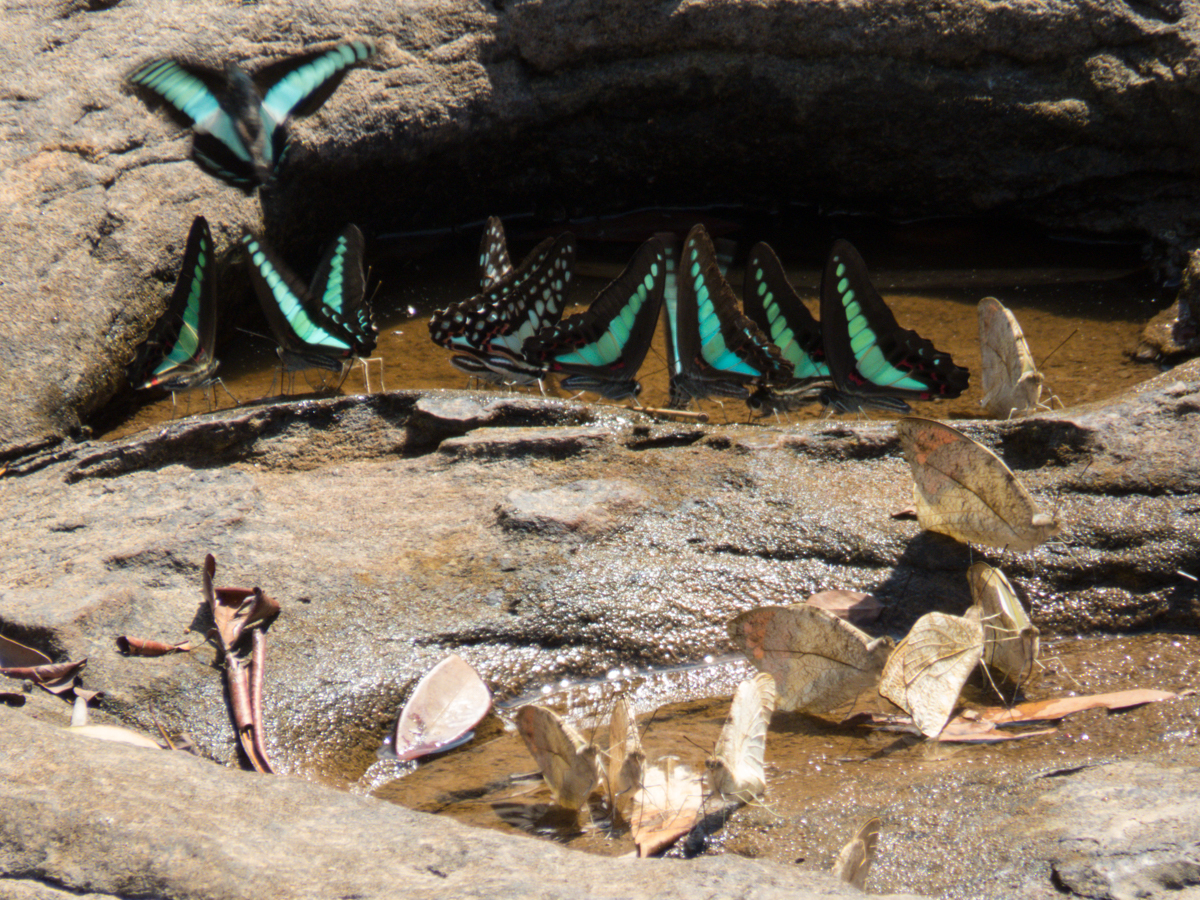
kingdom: Animalia
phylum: Arthropoda
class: Insecta
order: Lepidoptera
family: Papilionidae
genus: Graphium
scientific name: Graphium doson
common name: Common jay
